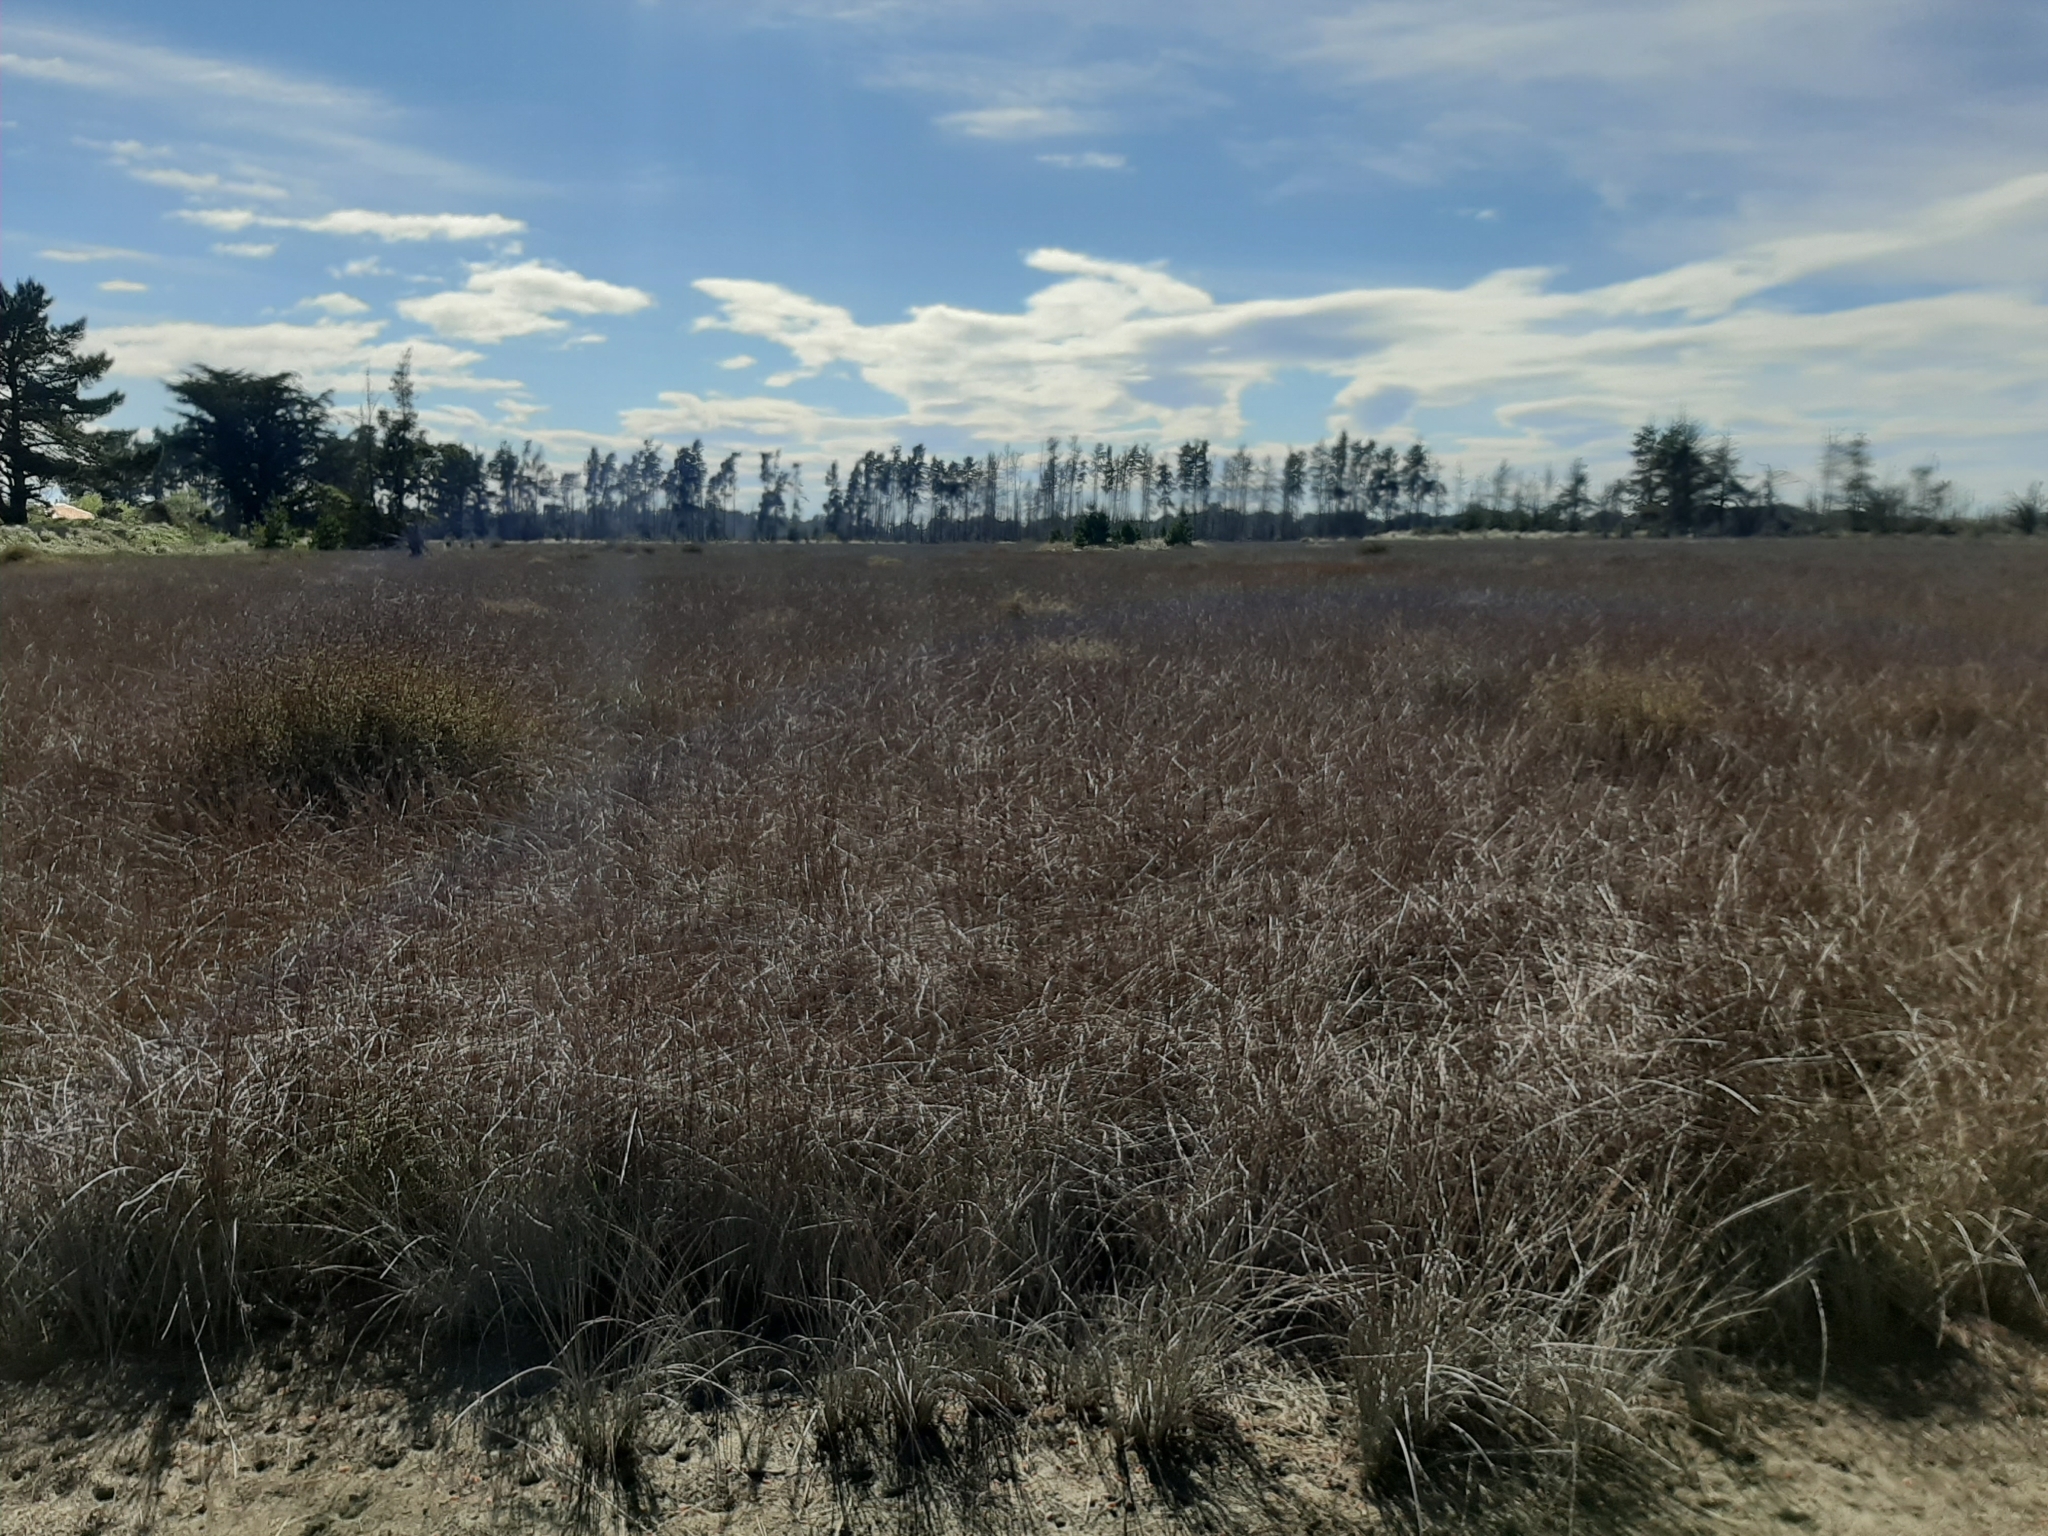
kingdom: Plantae
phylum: Tracheophyta
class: Liliopsida
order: Poales
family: Juncaceae
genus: Juncus
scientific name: Juncus kraussii
